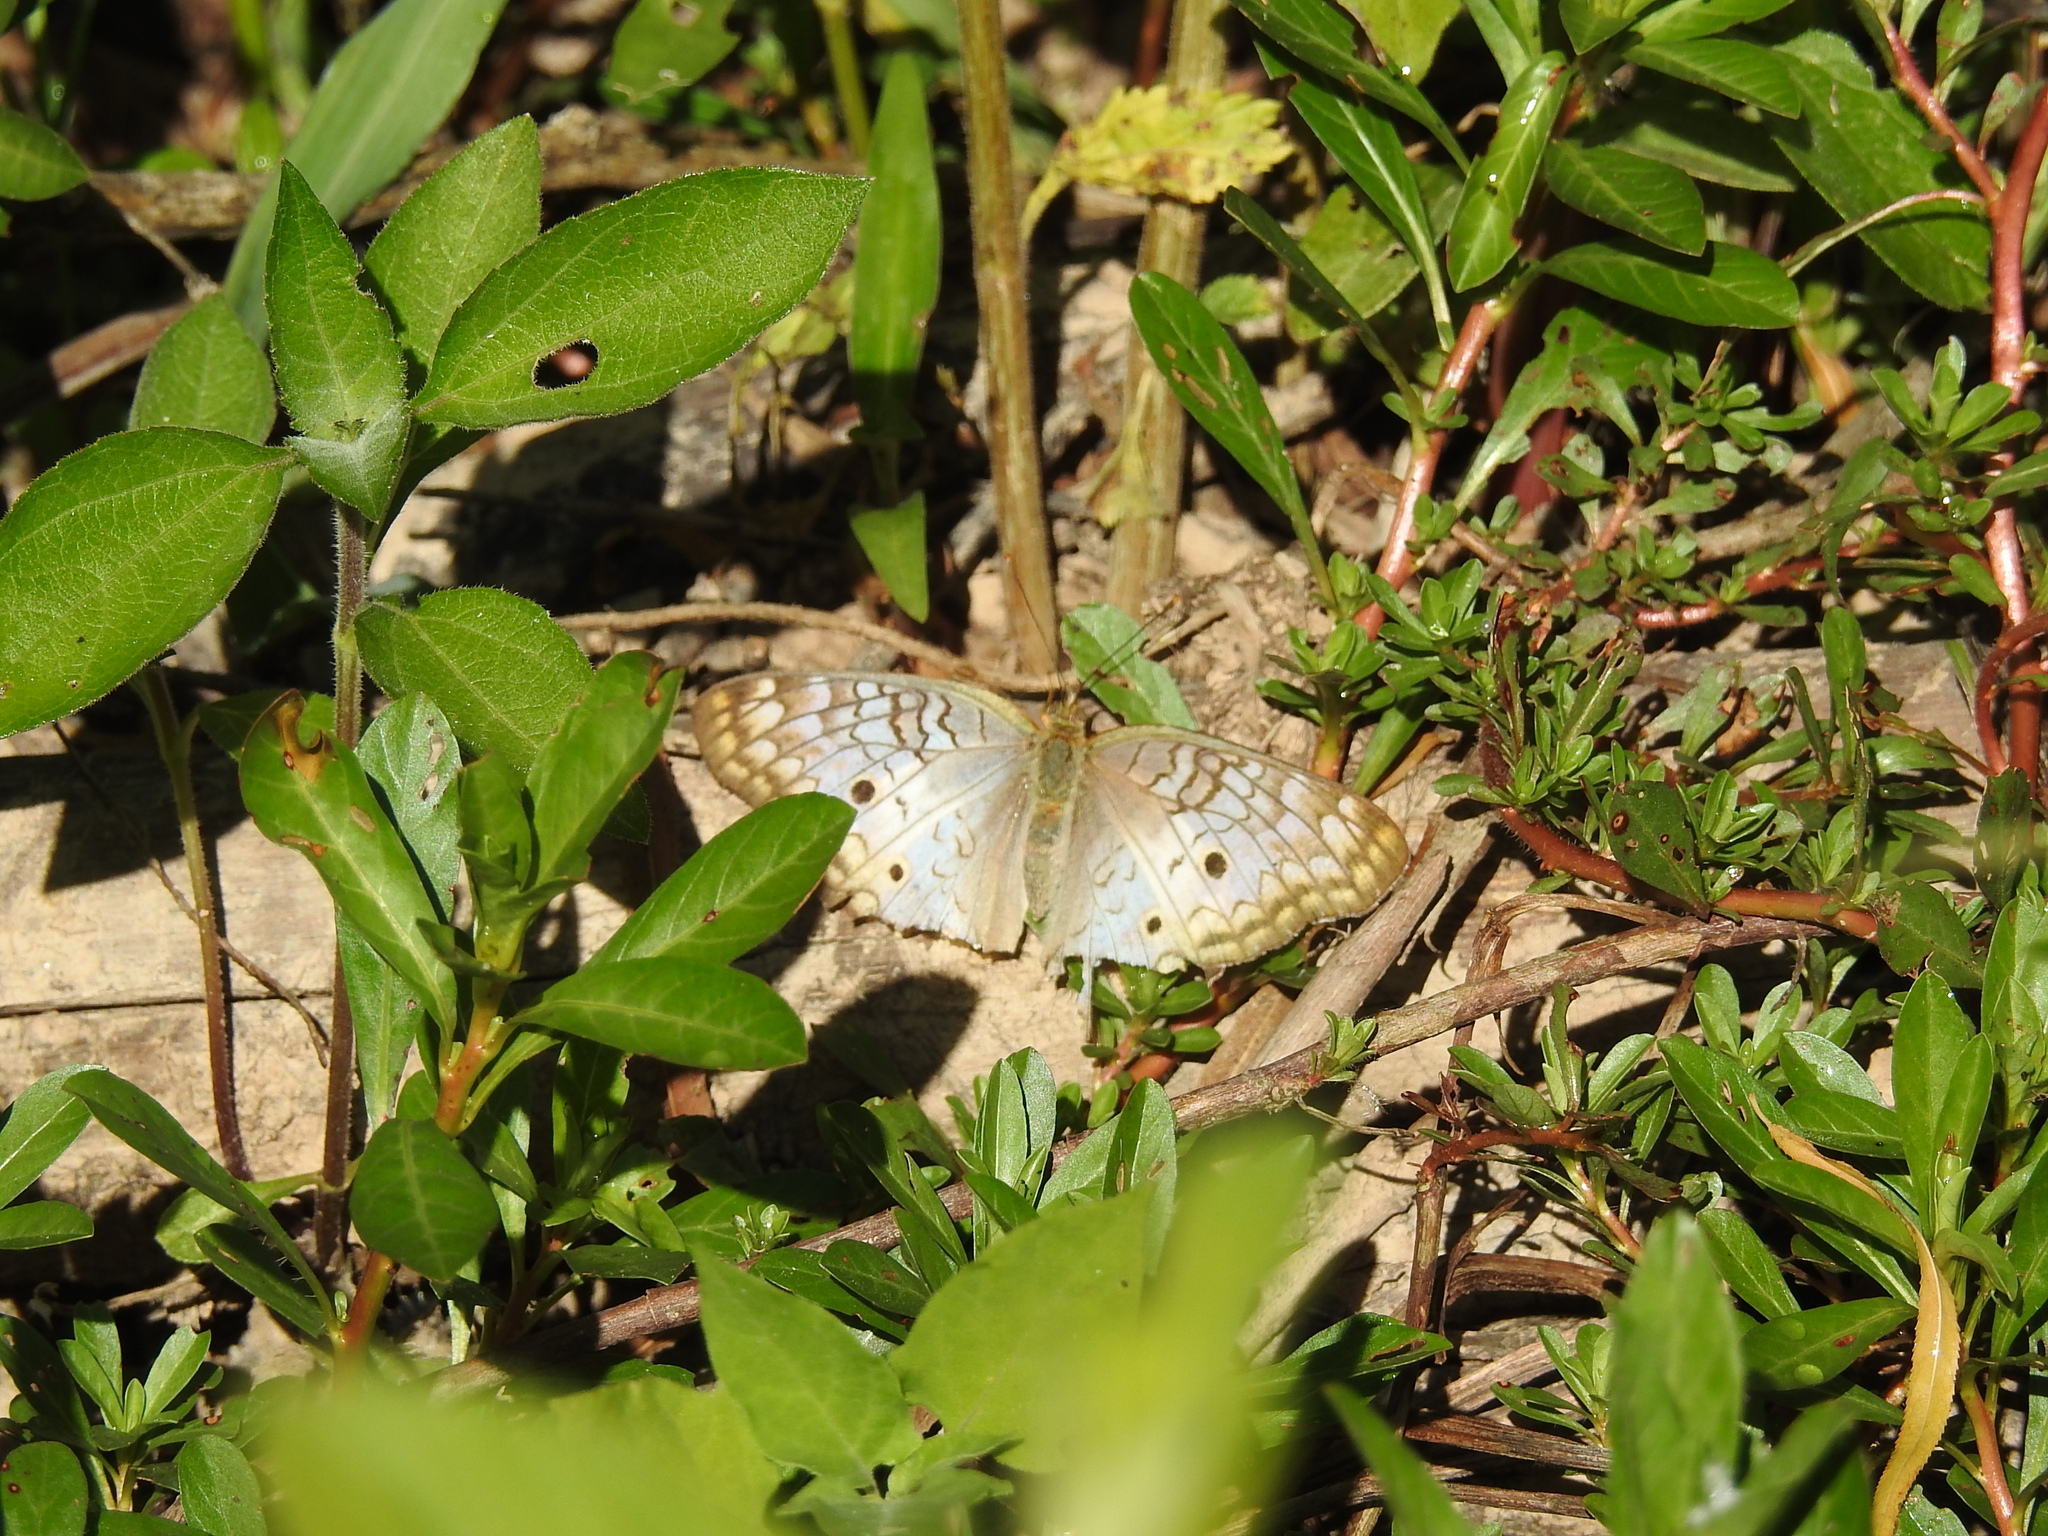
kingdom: Animalia
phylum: Arthropoda
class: Insecta
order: Lepidoptera
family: Nymphalidae
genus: Anartia
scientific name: Anartia jatrophae
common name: White peacock
